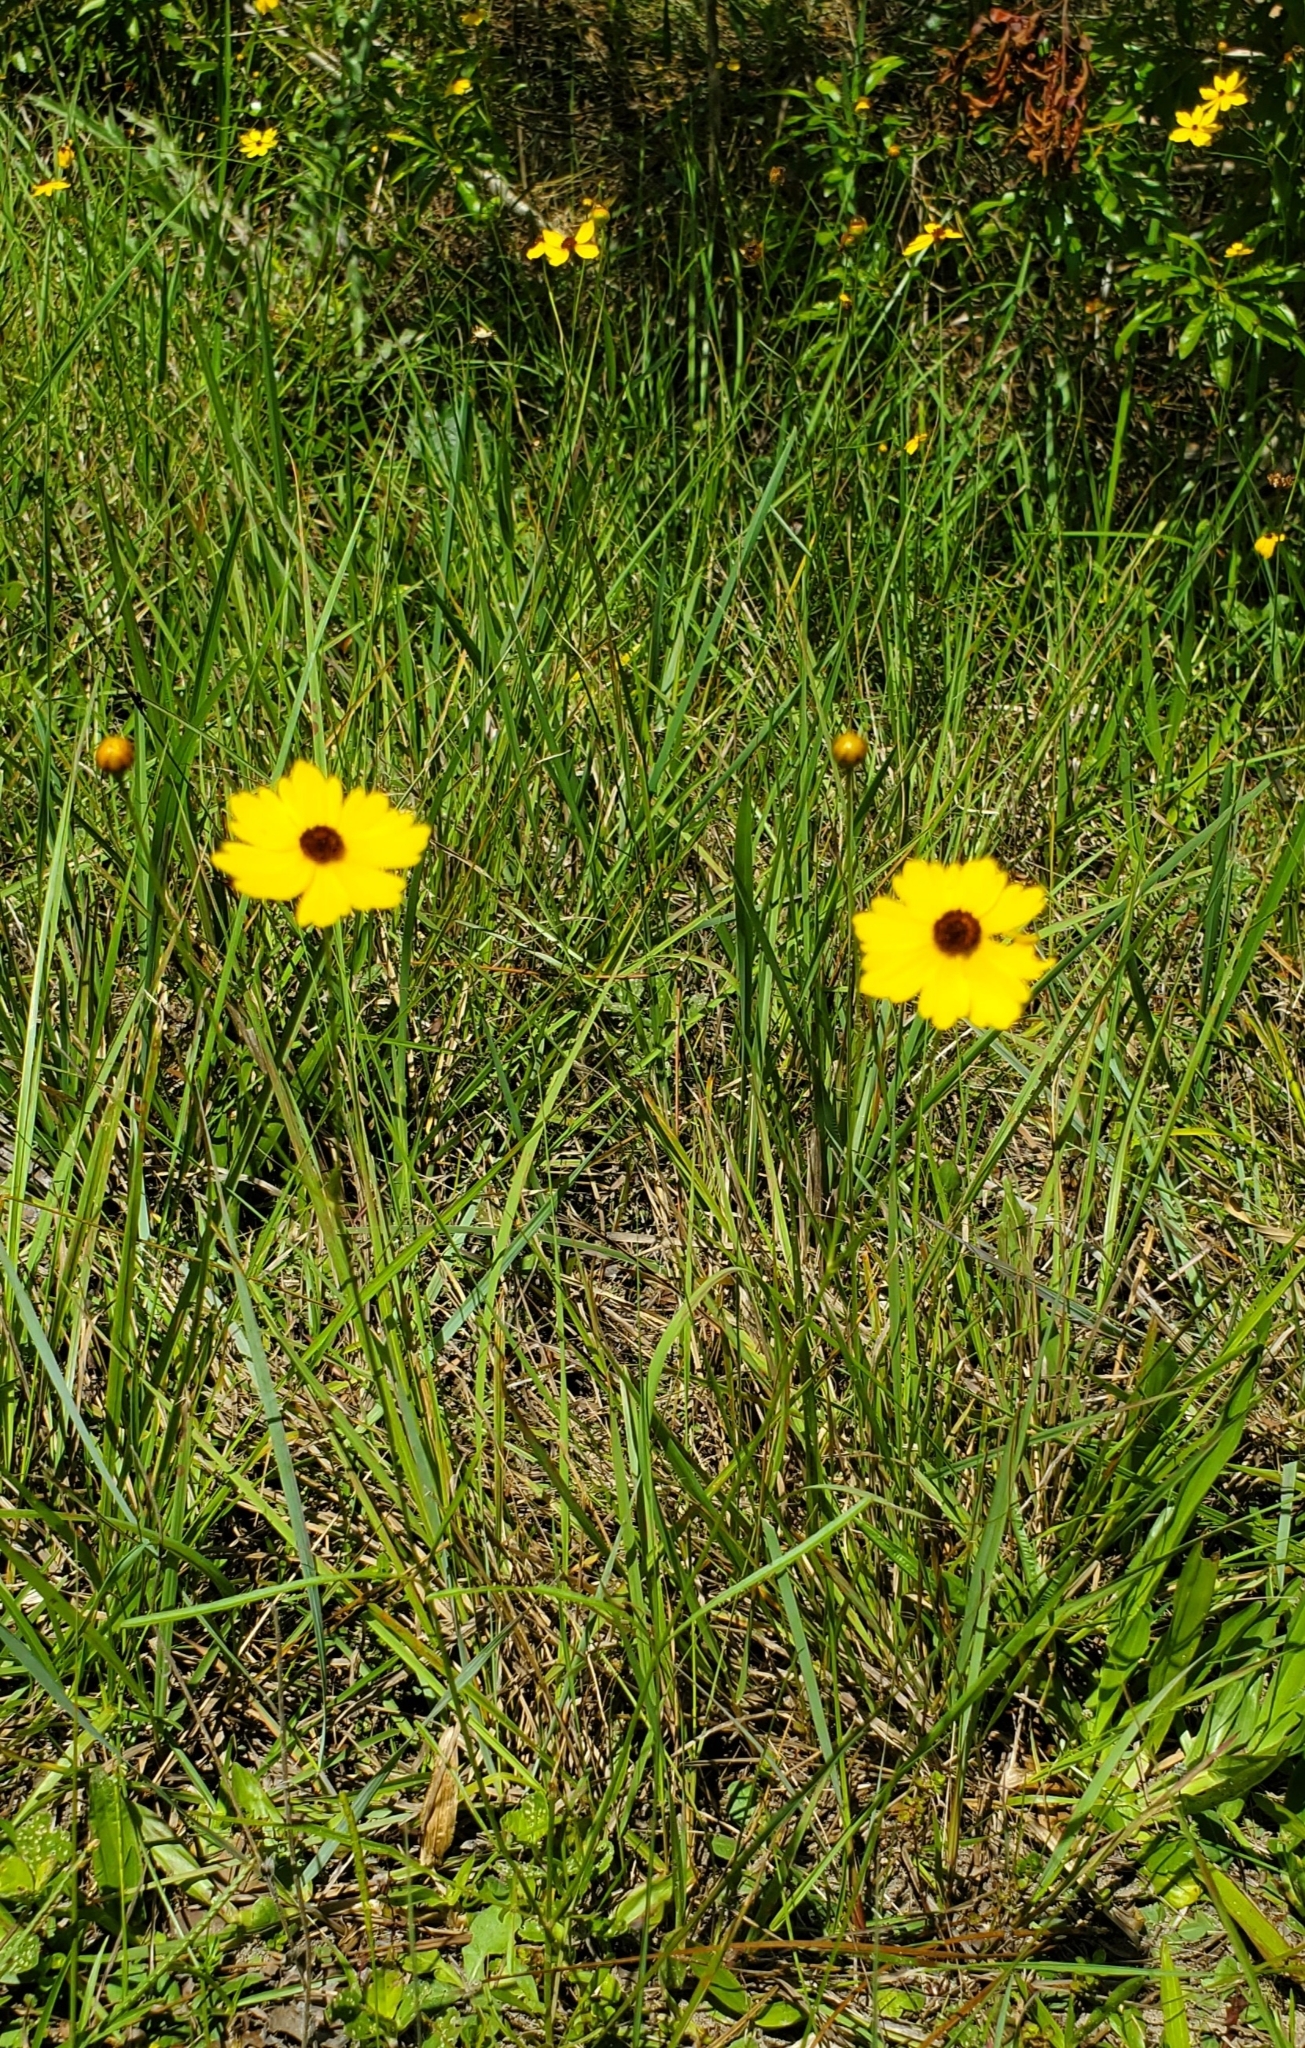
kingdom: Plantae
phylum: Tracheophyta
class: Magnoliopsida
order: Asterales
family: Asteraceae
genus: Coreopsis
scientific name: Coreopsis leavenworthii
